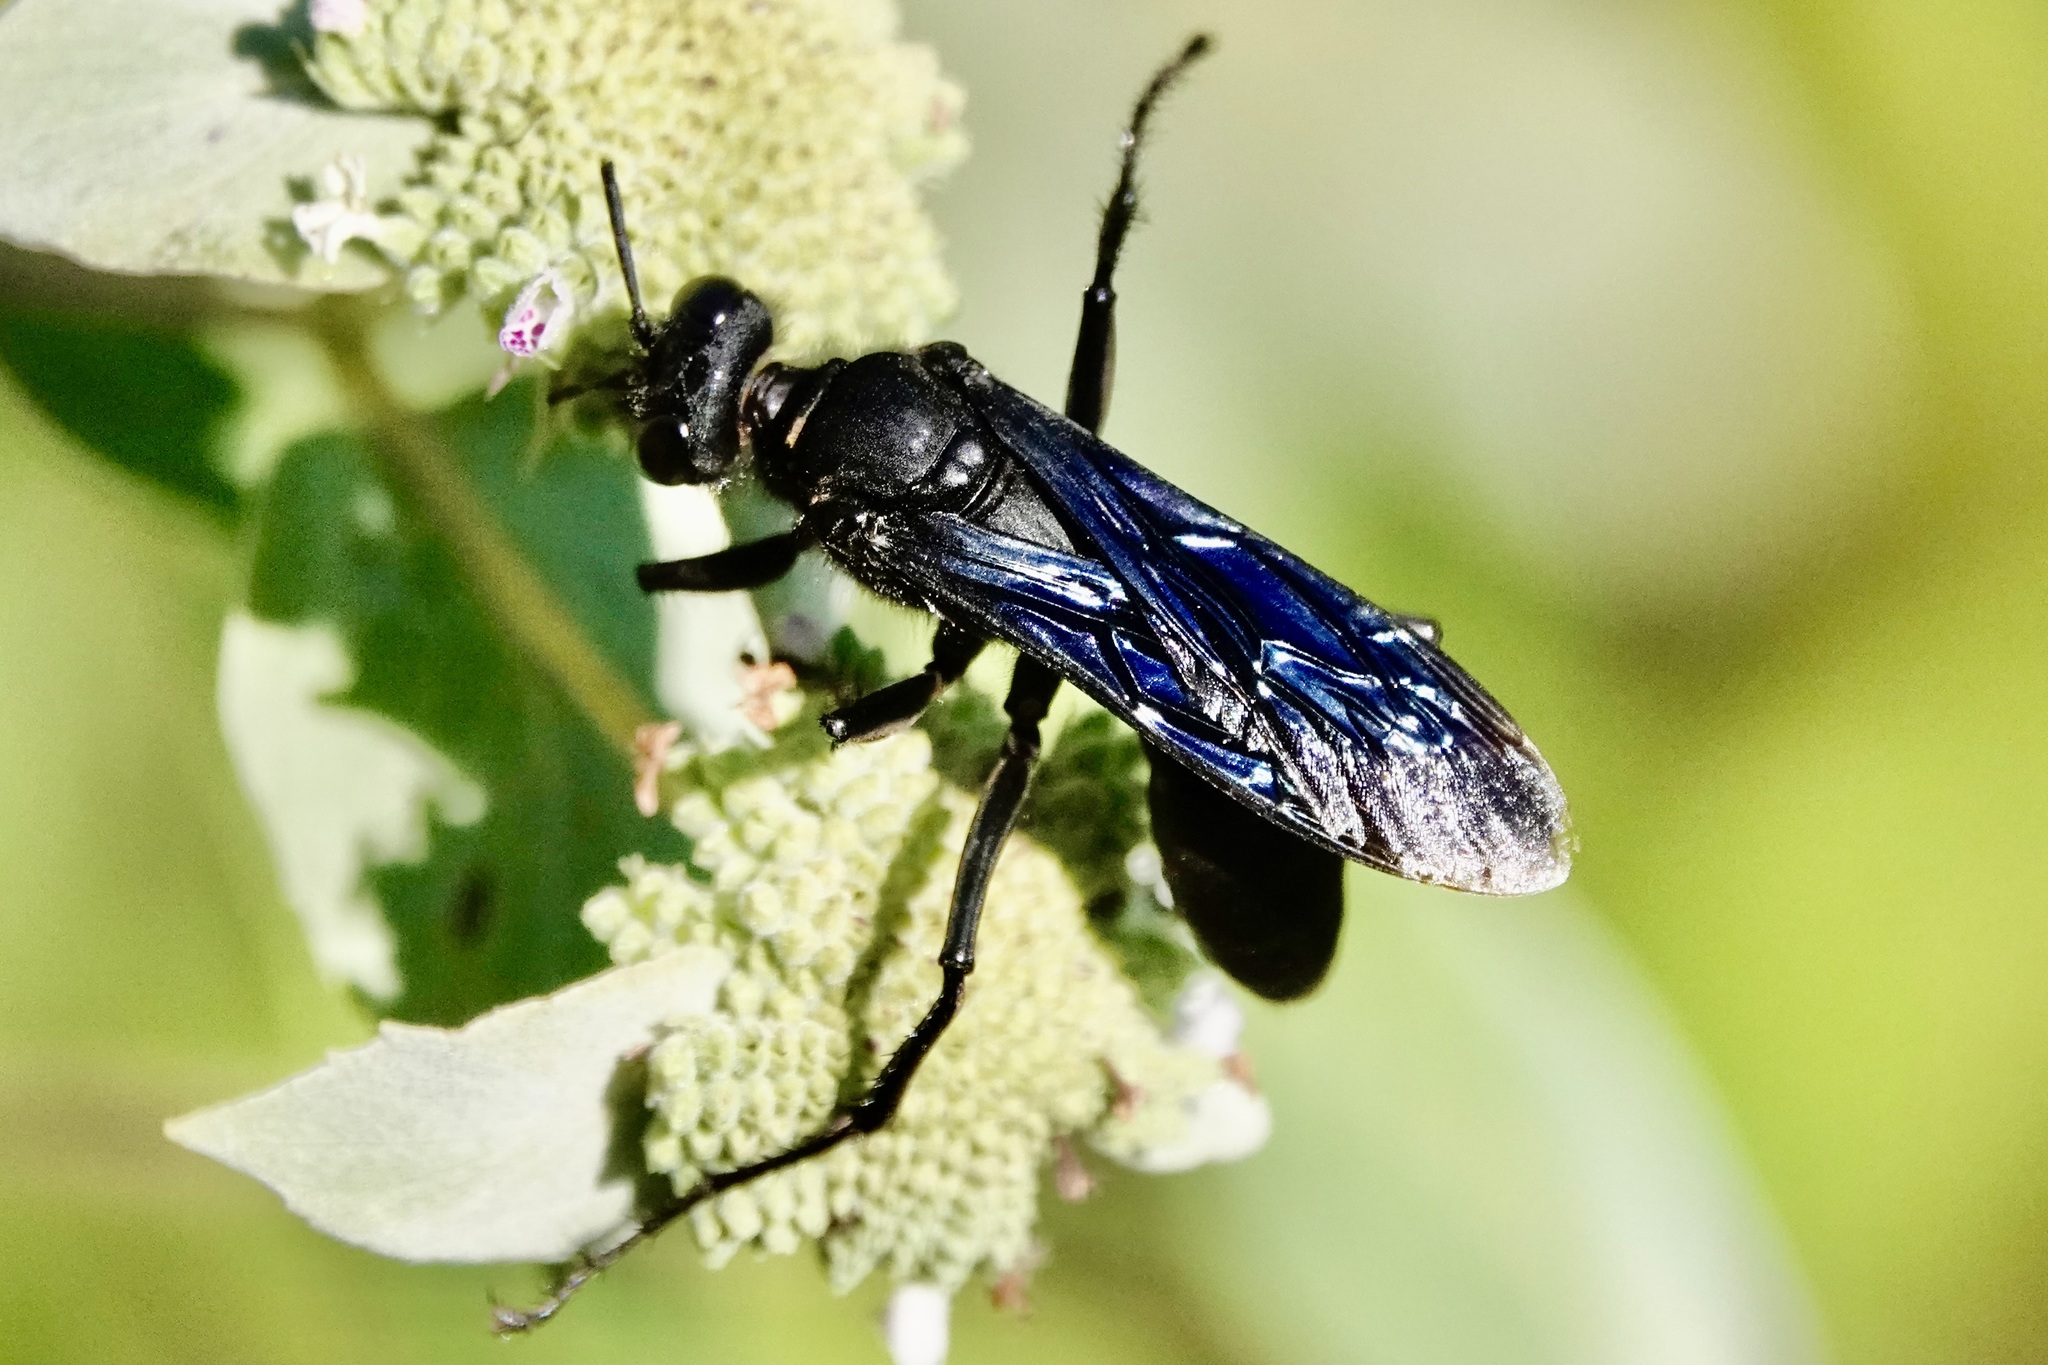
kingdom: Animalia
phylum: Arthropoda
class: Insecta
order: Hymenoptera
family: Sphecidae
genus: Sphex
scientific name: Sphex pensylvanicus
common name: Great black digger wasp
